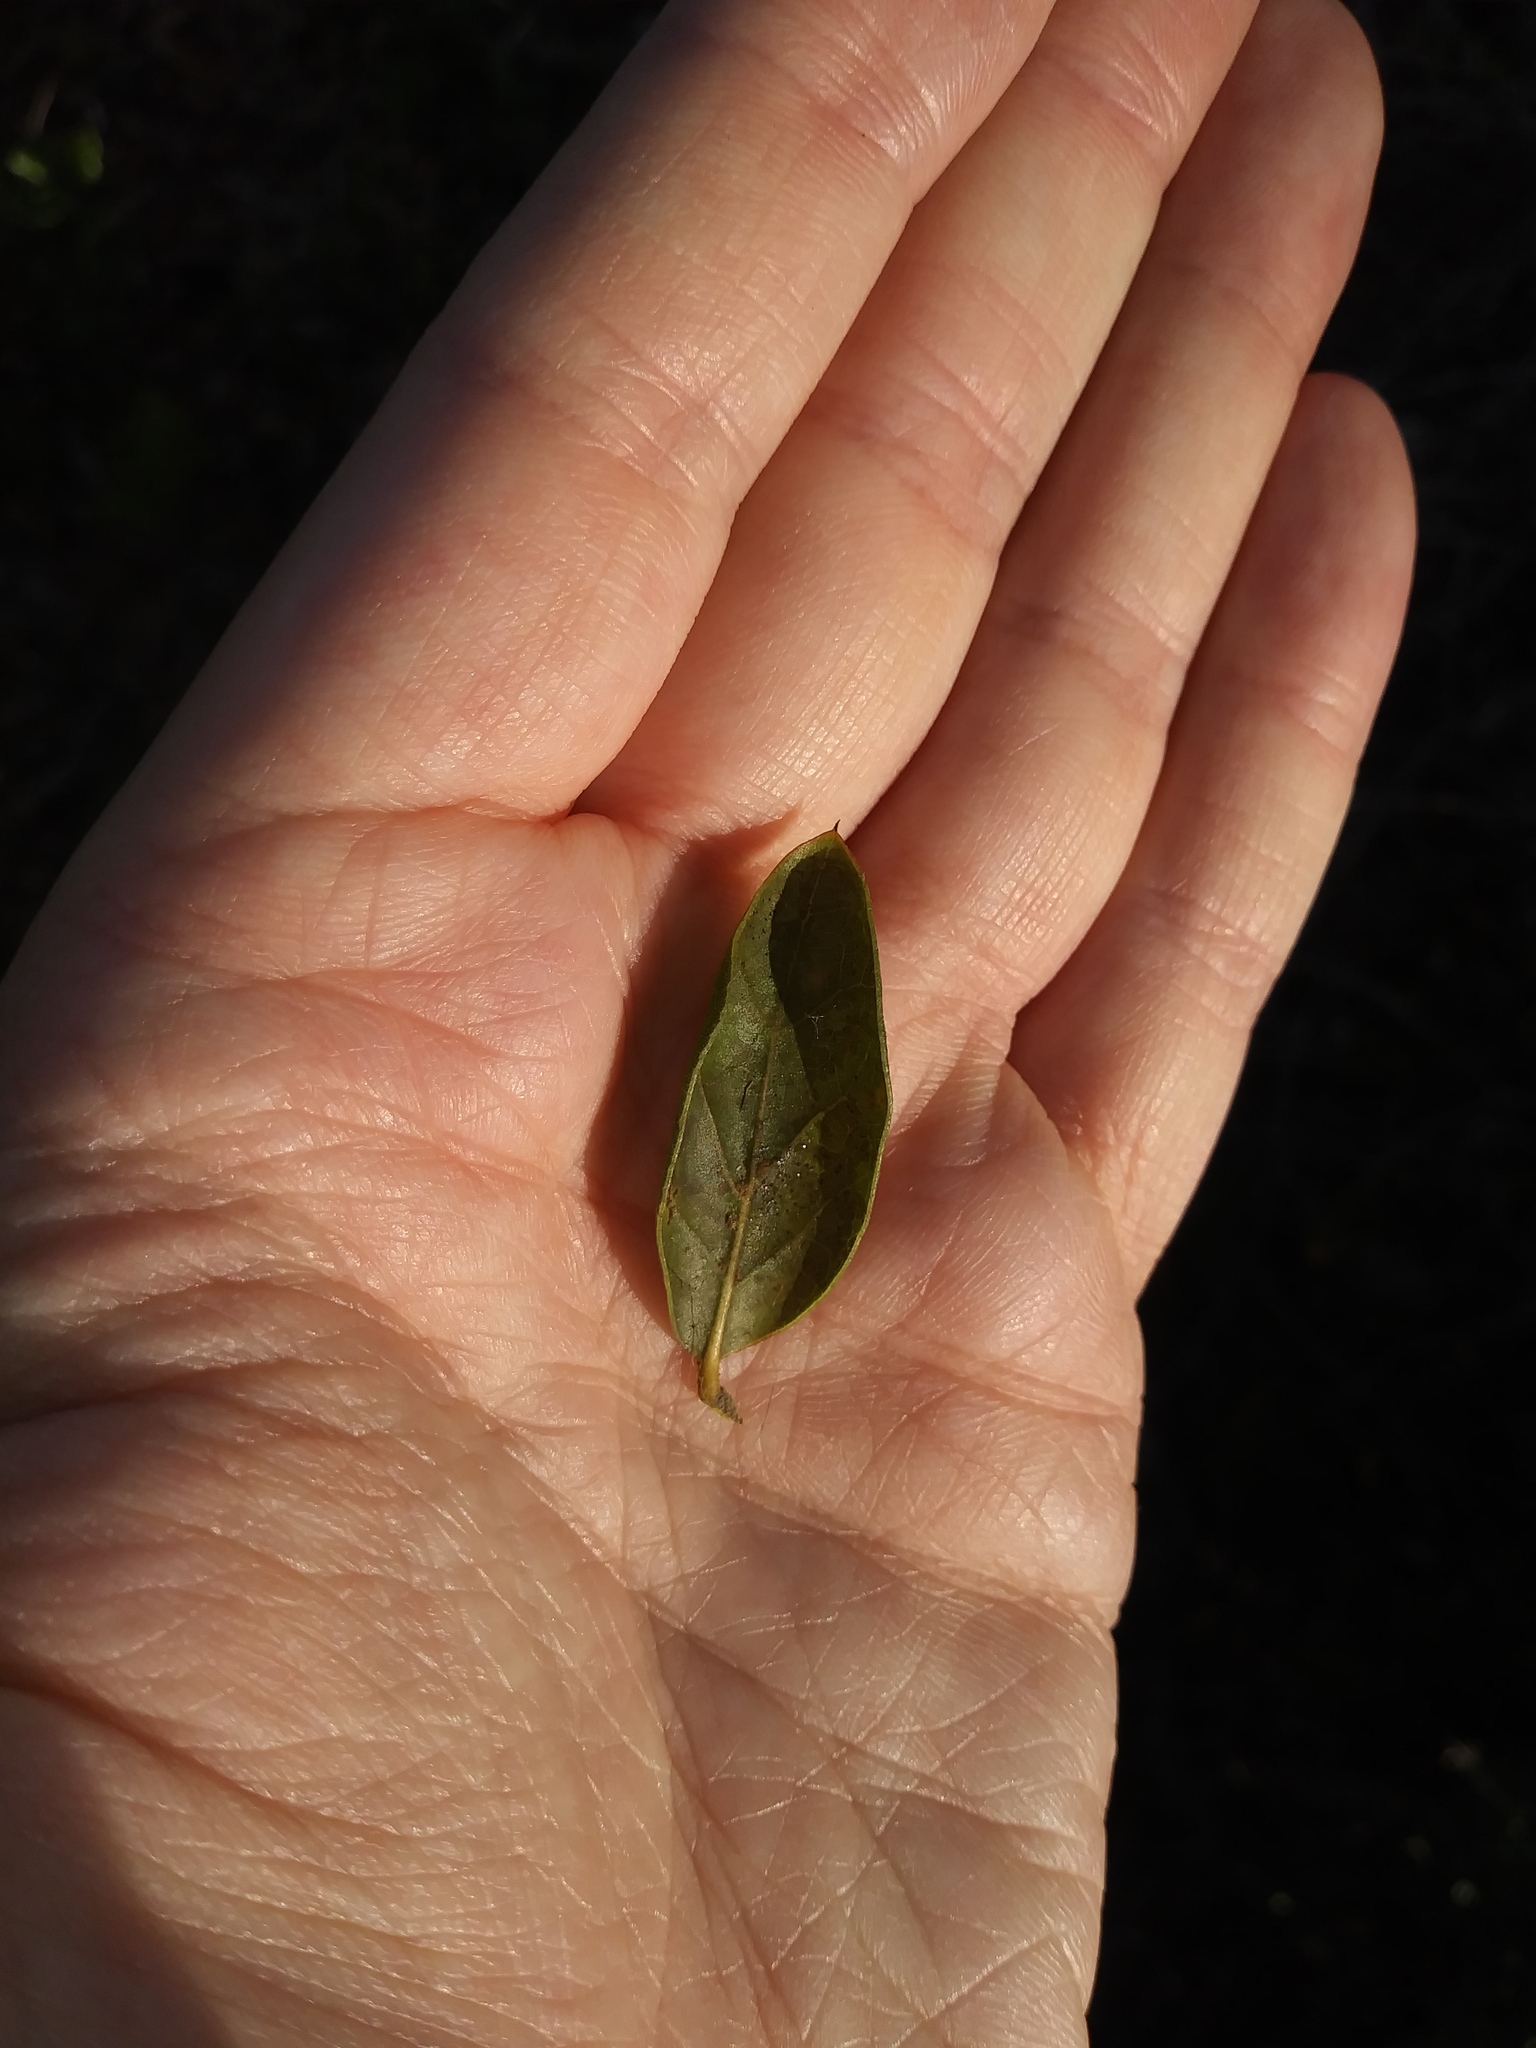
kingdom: Plantae
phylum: Tracheophyta
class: Magnoliopsida
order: Fagales
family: Fagaceae
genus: Quercus
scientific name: Quercus myrtifolia
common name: Myrtle oak
